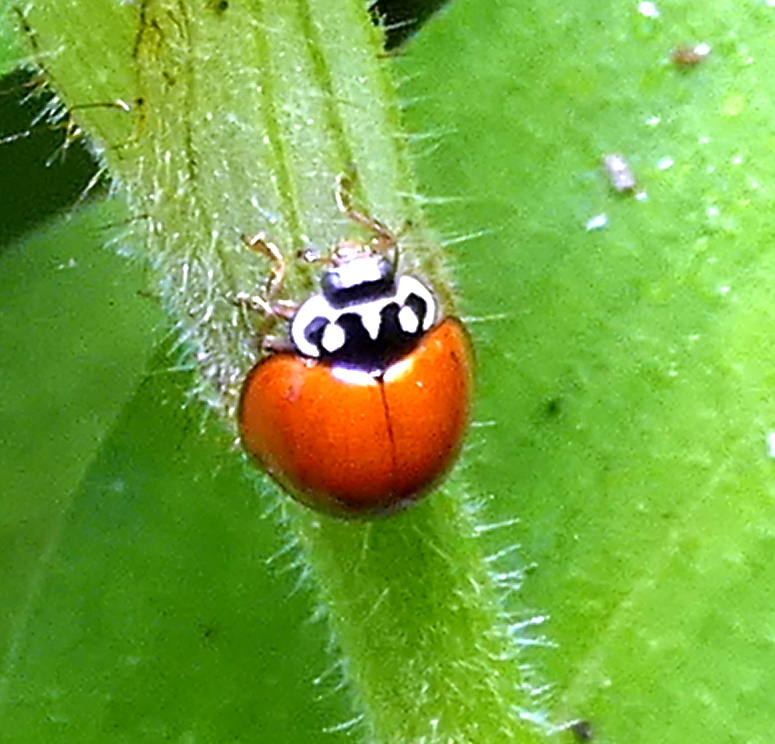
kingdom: Animalia
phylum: Arthropoda
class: Insecta
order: Coleoptera
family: Coccinellidae
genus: Cycloneda
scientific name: Cycloneda sanguinea
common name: Ladybird beetle
